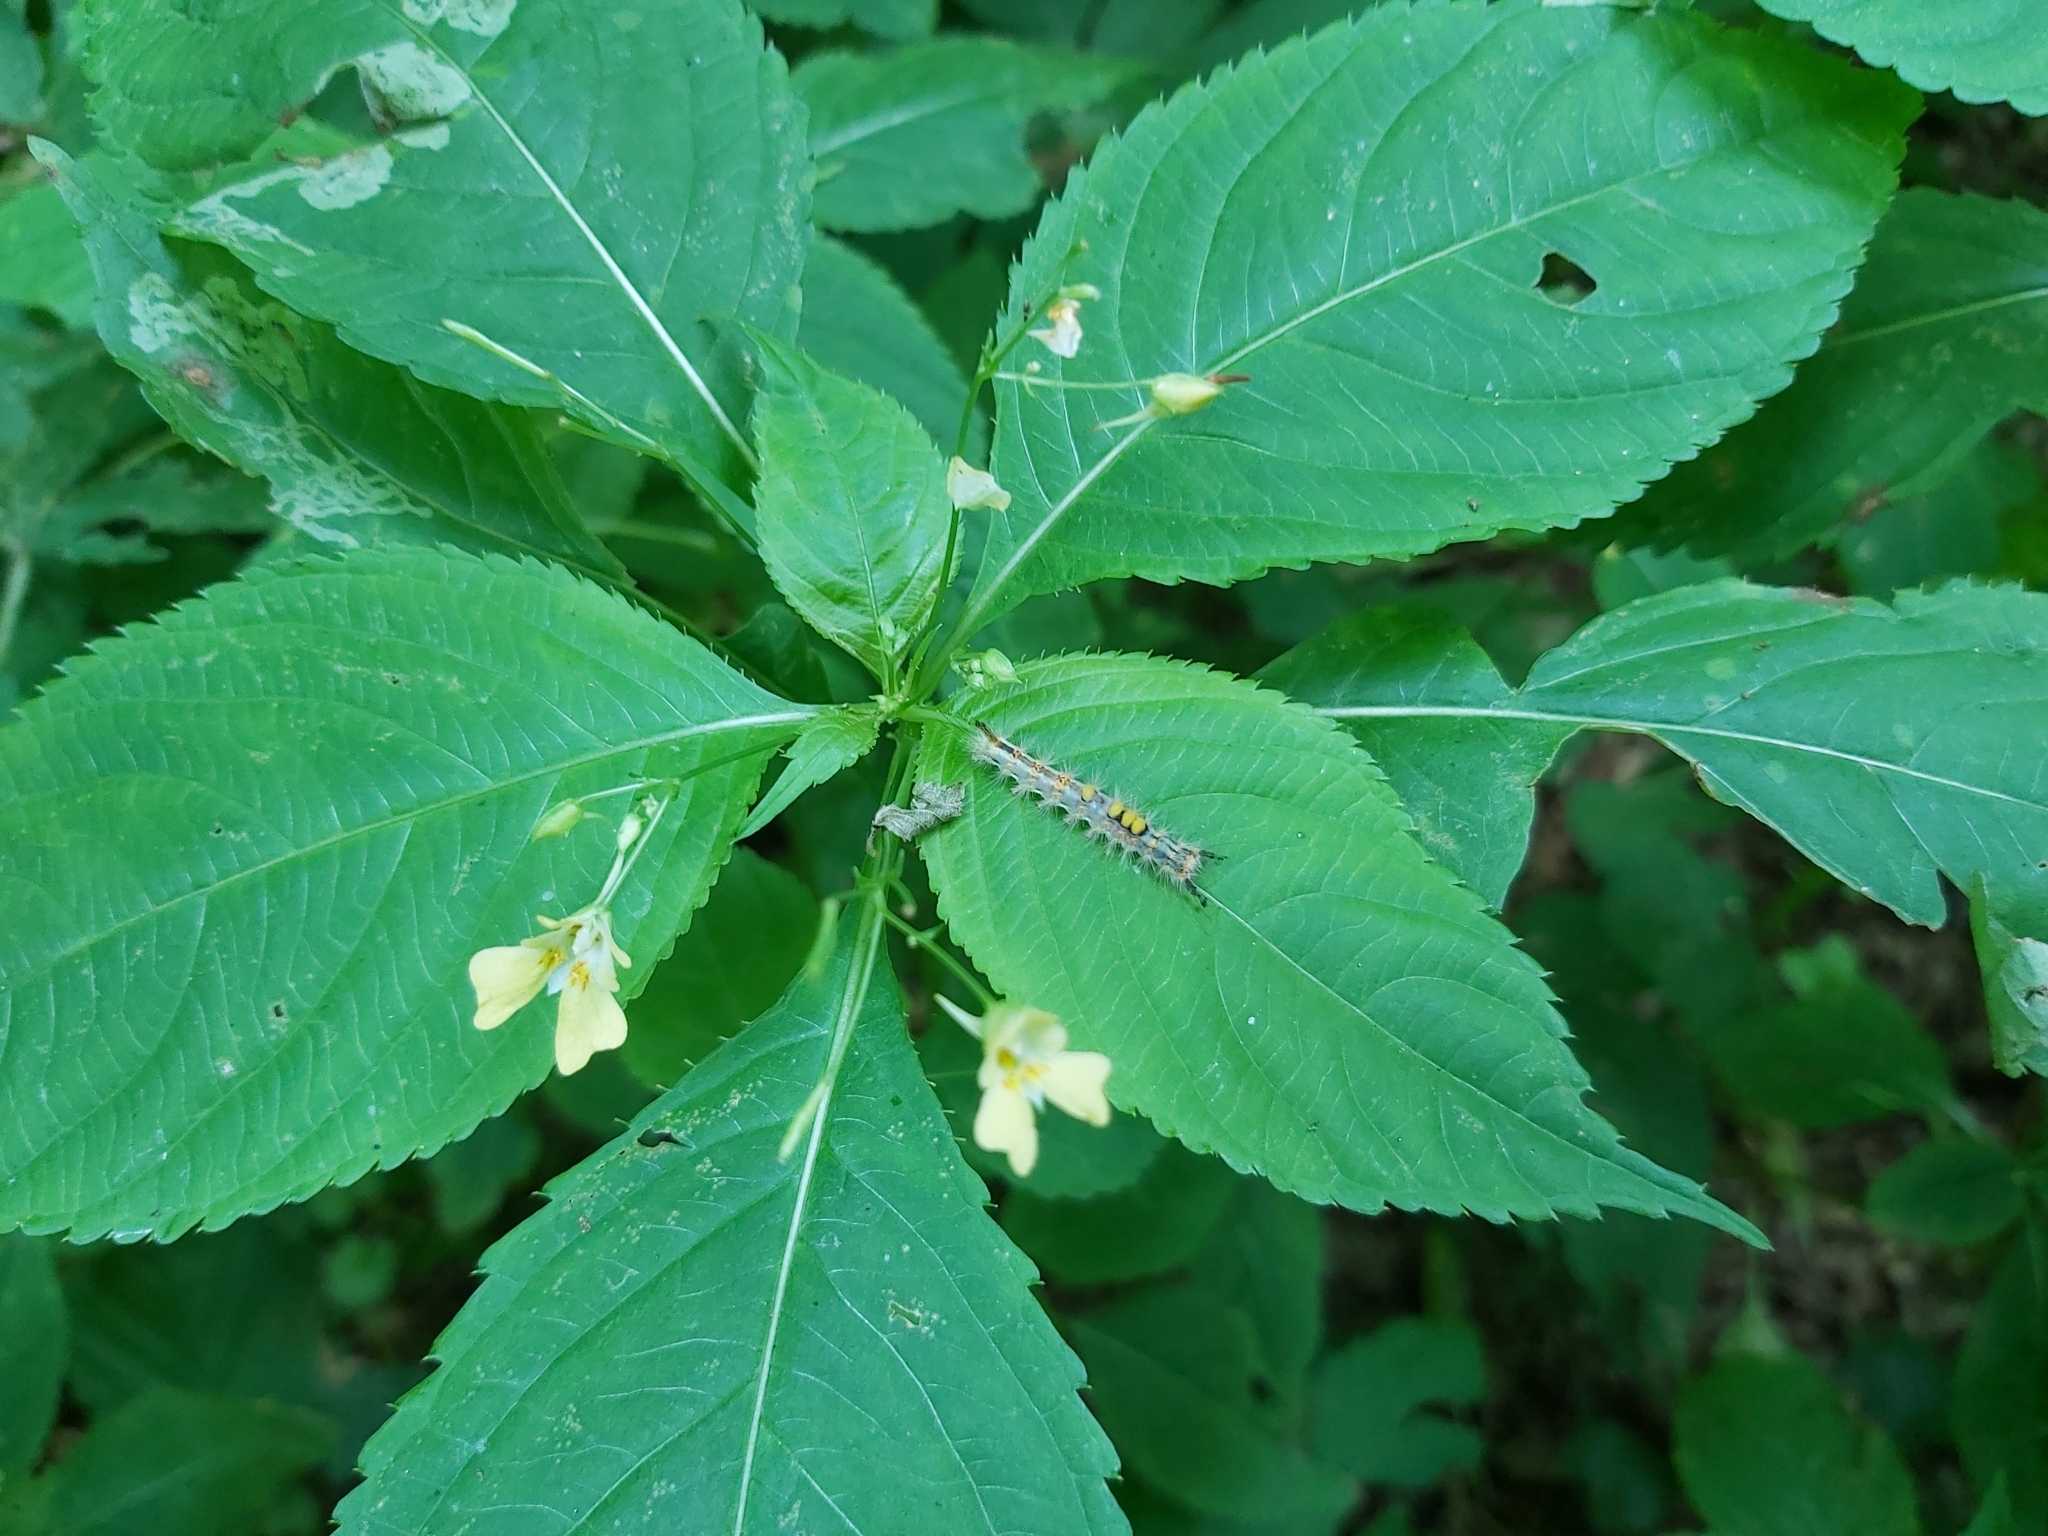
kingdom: Animalia
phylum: Arthropoda
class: Insecta
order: Lepidoptera
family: Erebidae
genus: Orgyia
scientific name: Orgyia antiqua
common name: Vapourer
